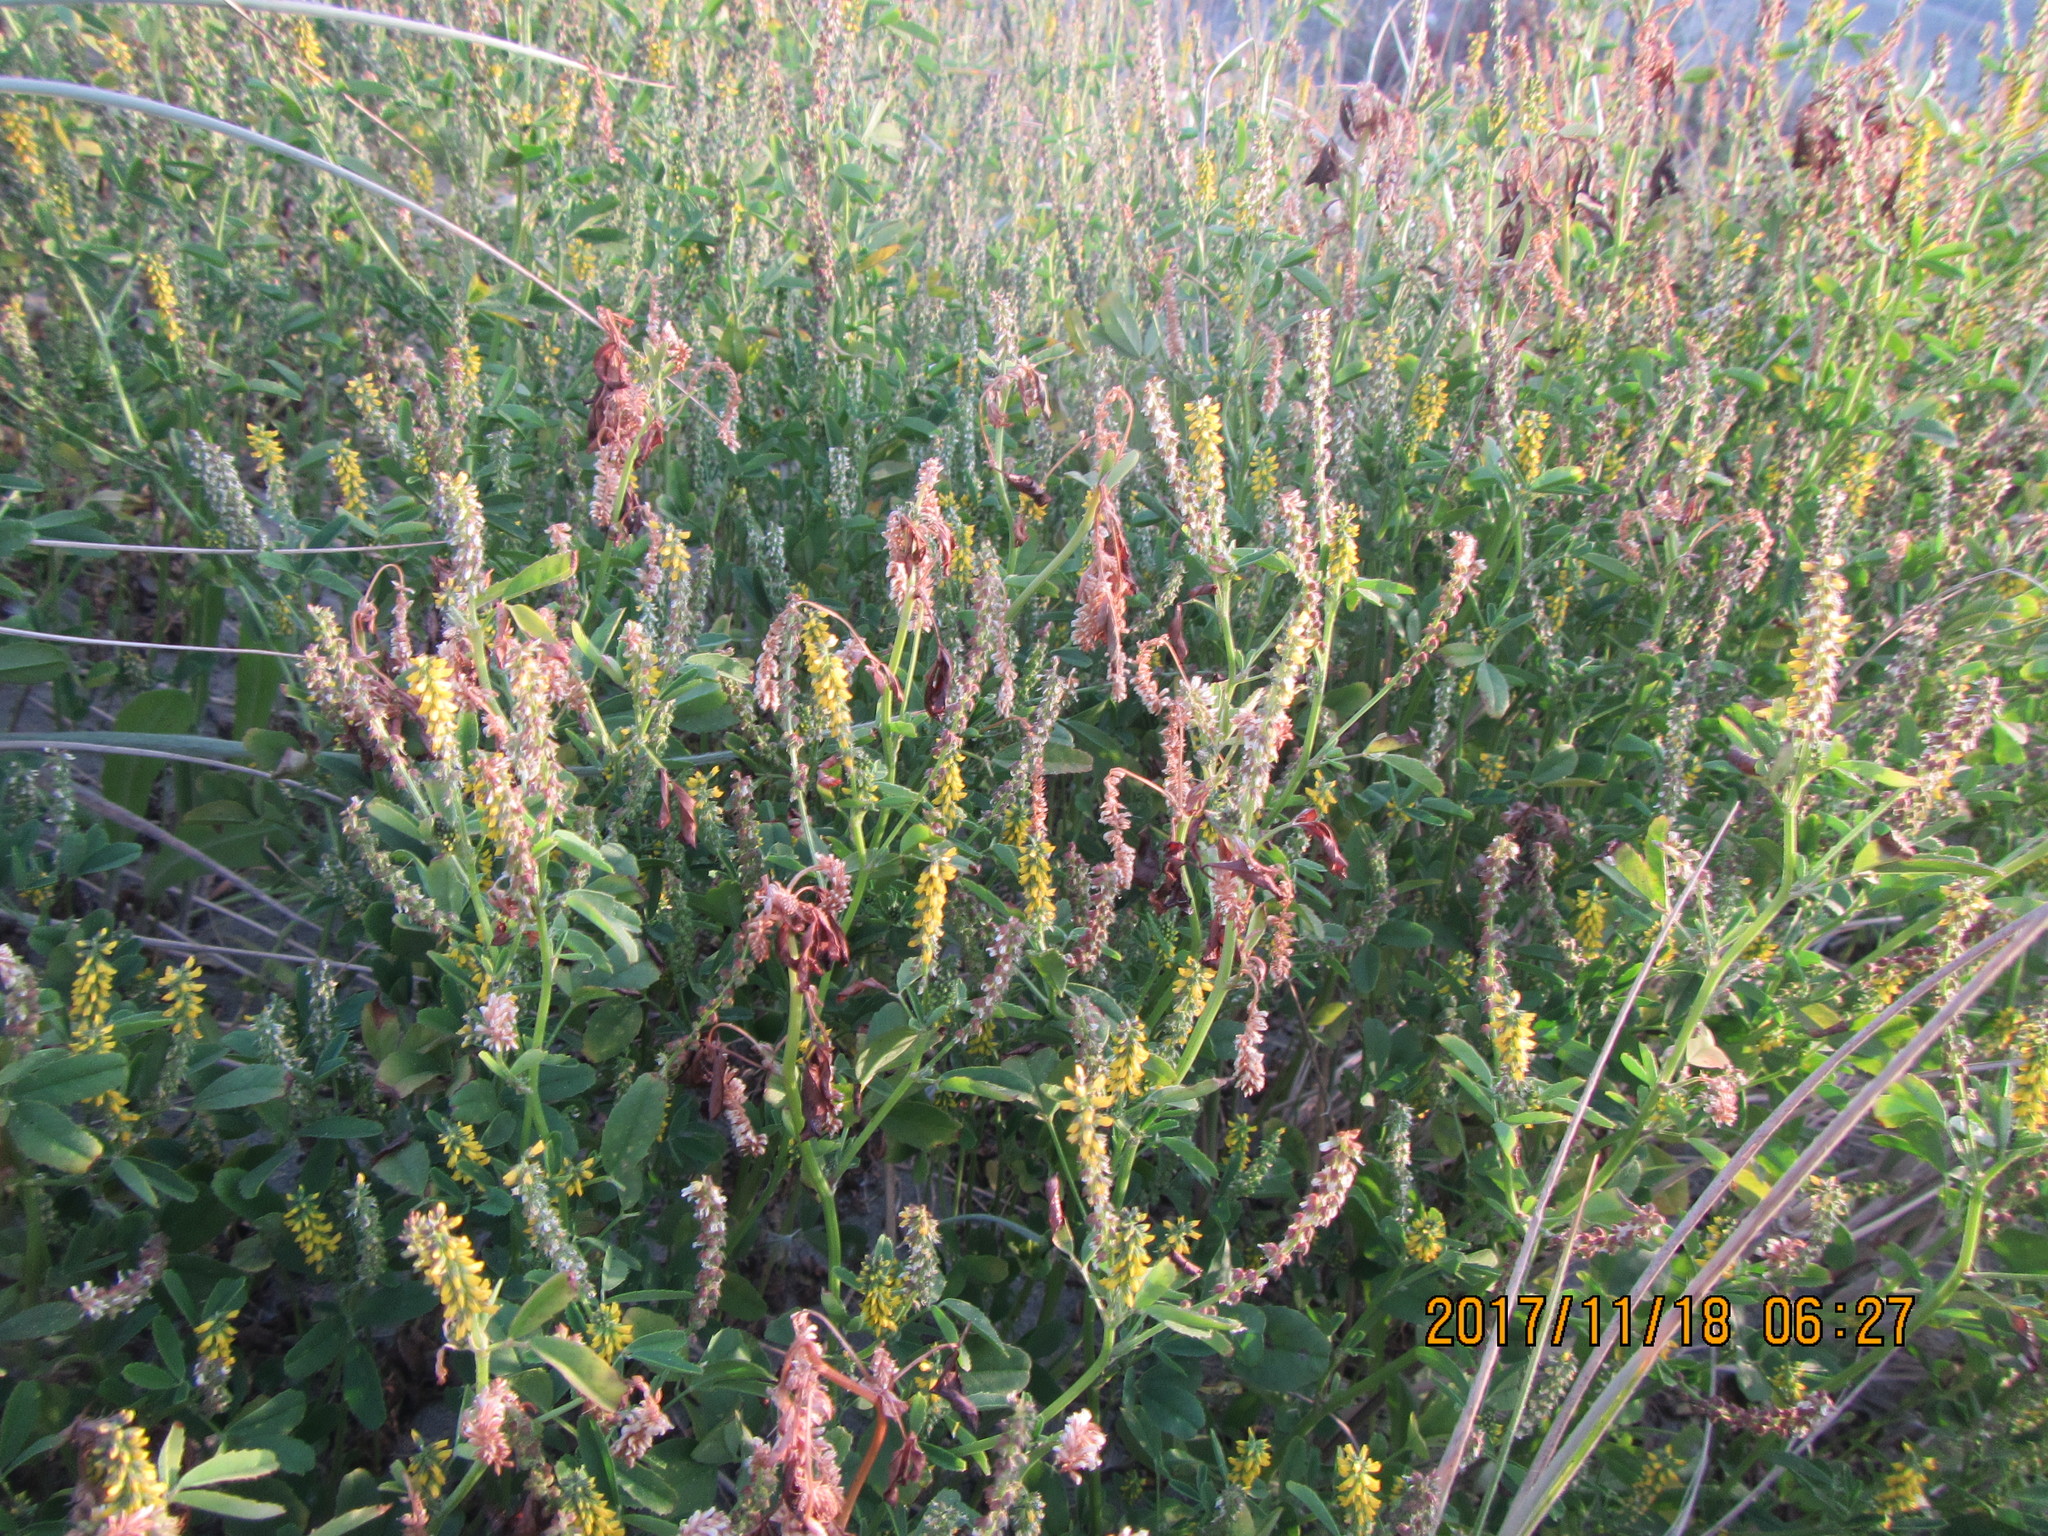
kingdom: Plantae
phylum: Tracheophyta
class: Magnoliopsida
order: Fabales
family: Fabaceae
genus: Melilotus
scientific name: Melilotus indicus
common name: Small melilot
